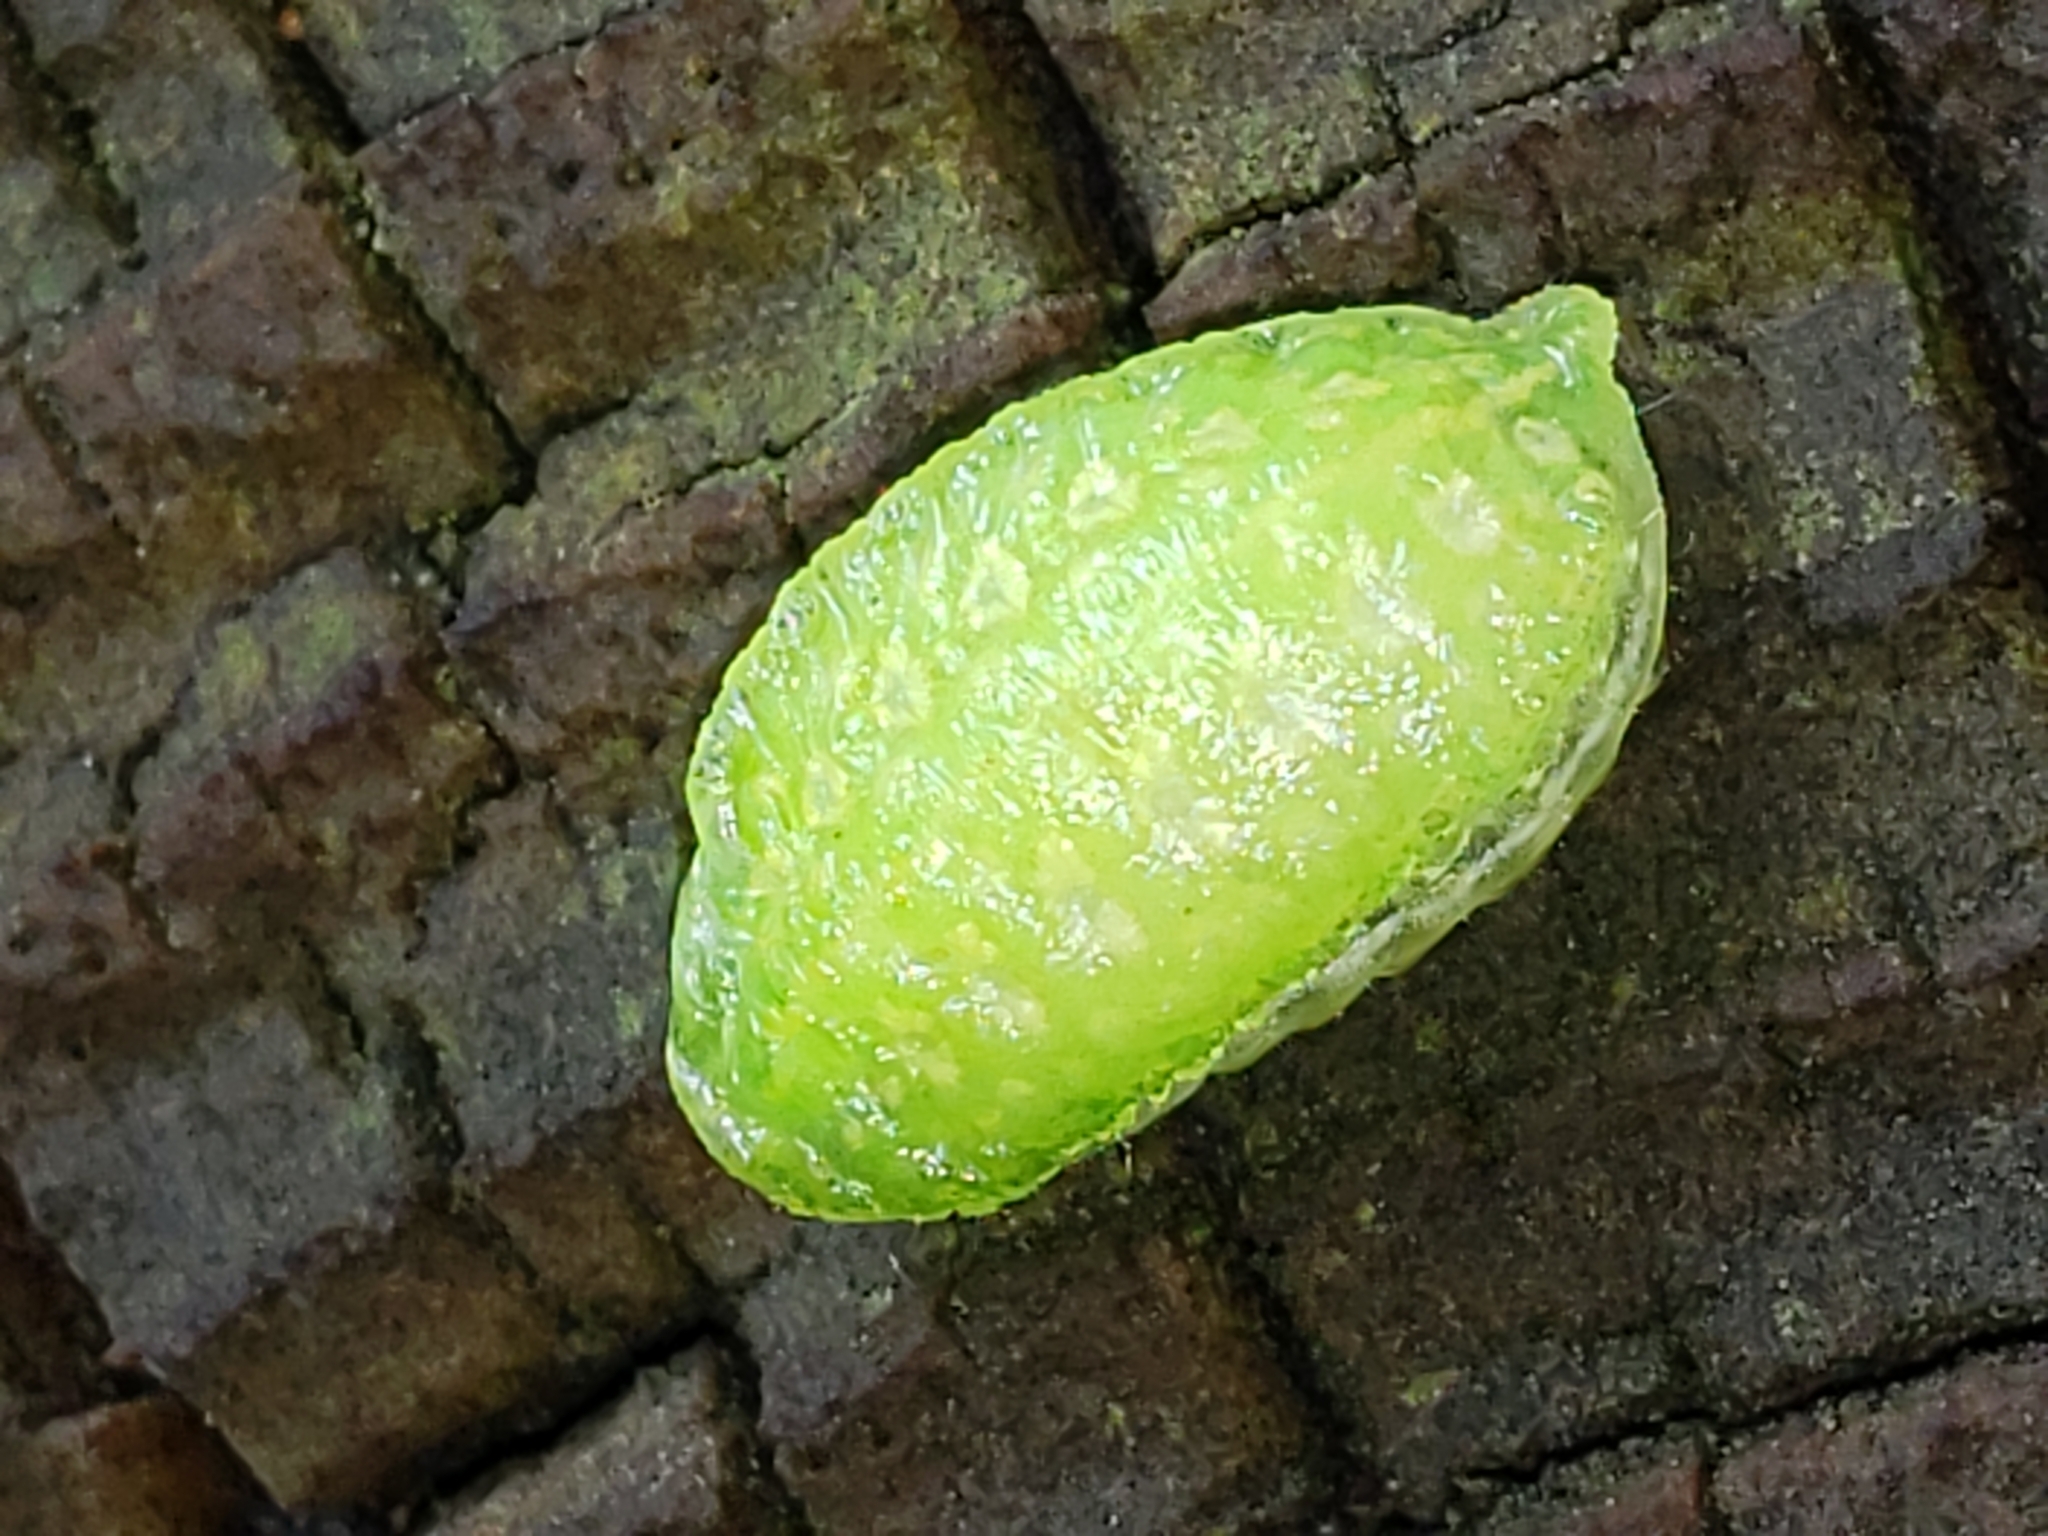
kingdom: Animalia
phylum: Arthropoda
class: Insecta
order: Lepidoptera
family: Limacodidae
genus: Lithacodes
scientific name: Lithacodes fasciola
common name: Yellow-shouldered slug moth
